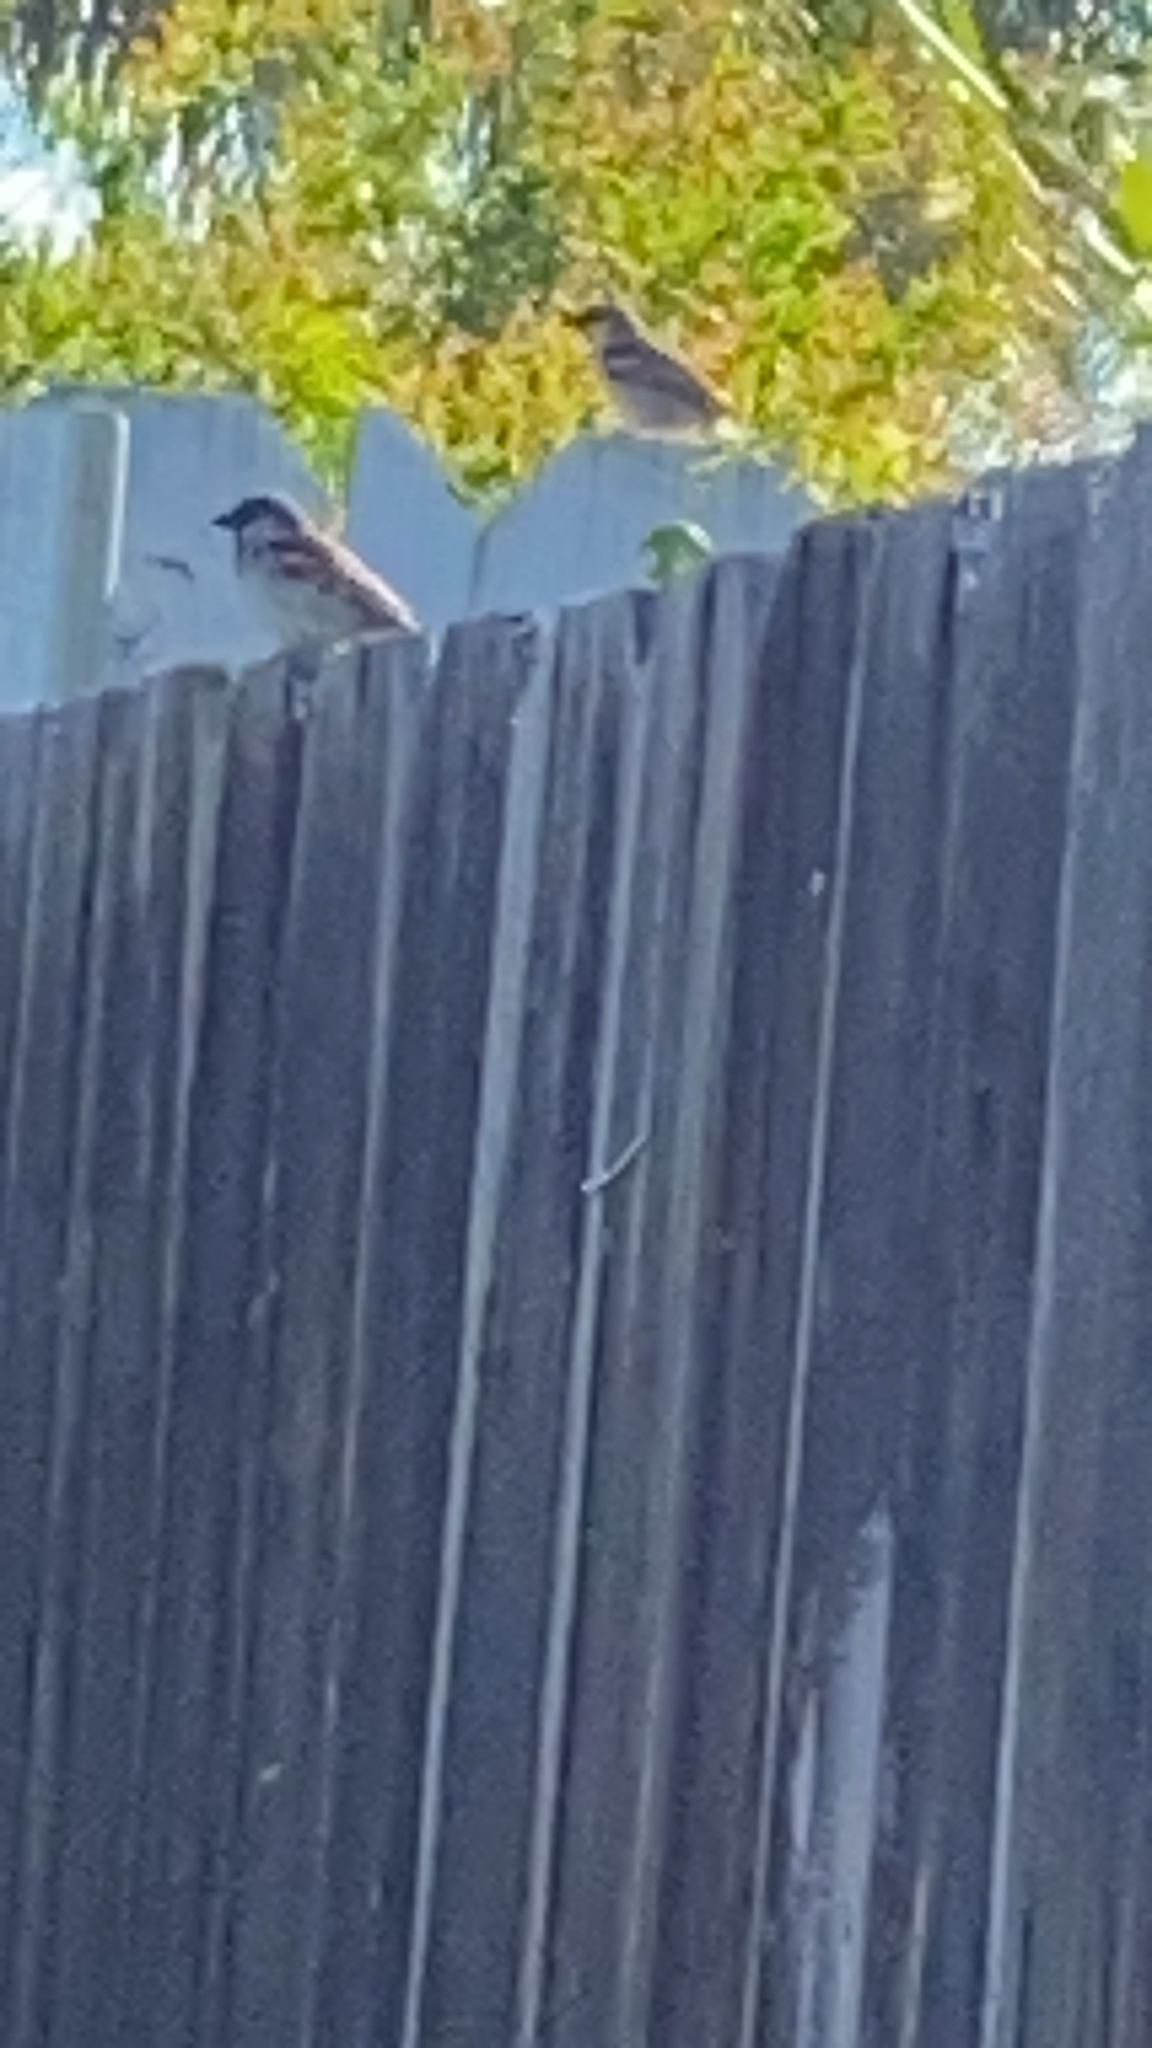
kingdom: Animalia
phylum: Chordata
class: Aves
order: Passeriformes
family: Passeridae
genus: Passer
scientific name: Passer domesticus
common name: House sparrow
